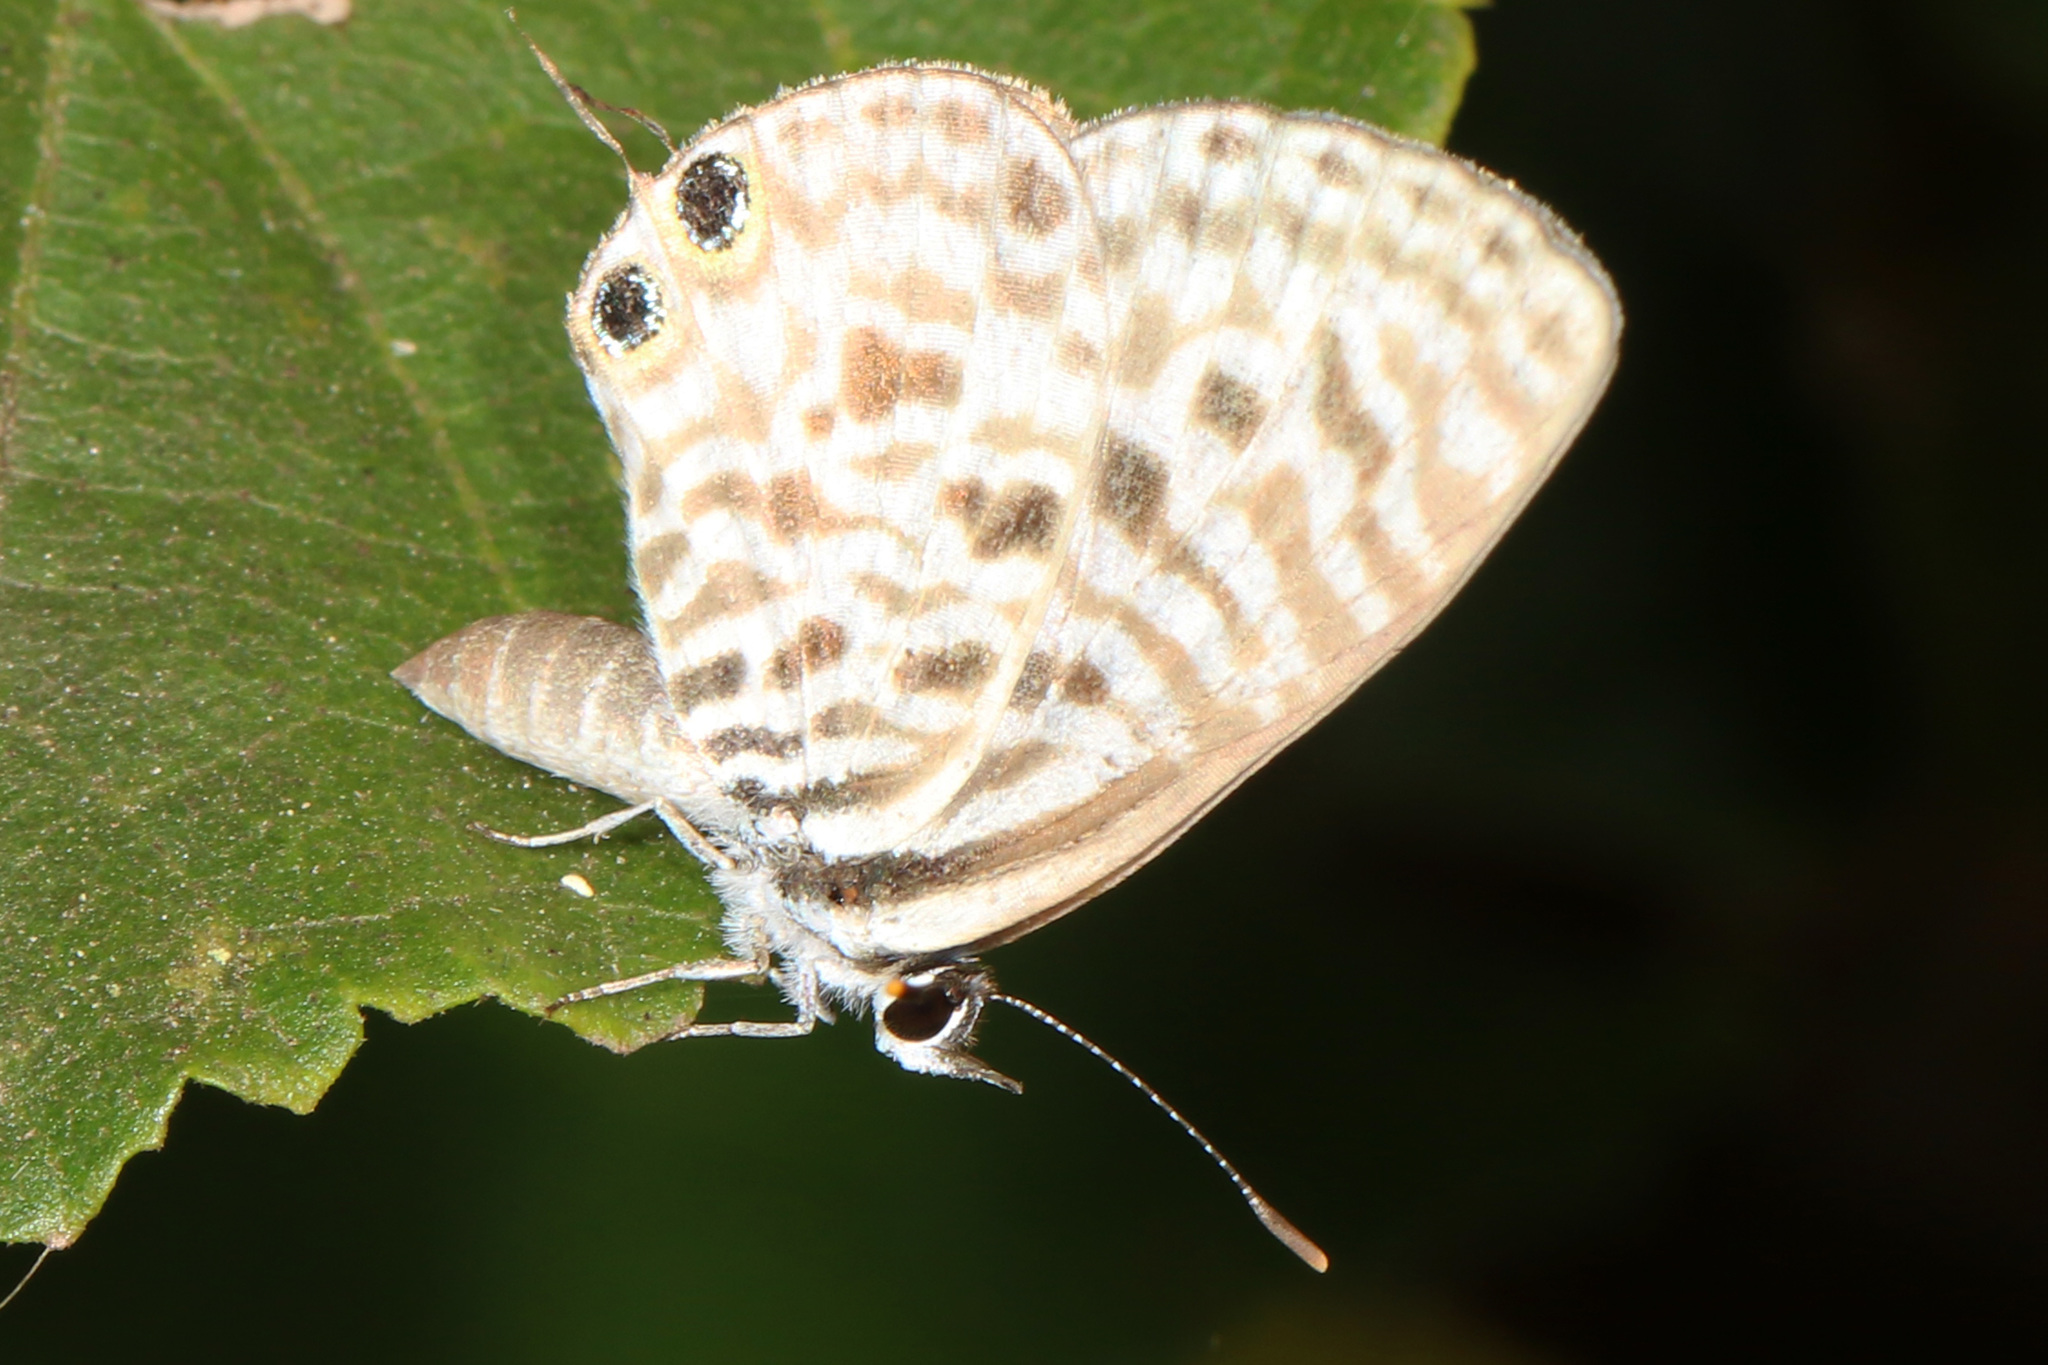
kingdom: Animalia
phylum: Arthropoda
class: Insecta
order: Lepidoptera
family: Lycaenidae
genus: Leptotes
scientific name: Leptotes
